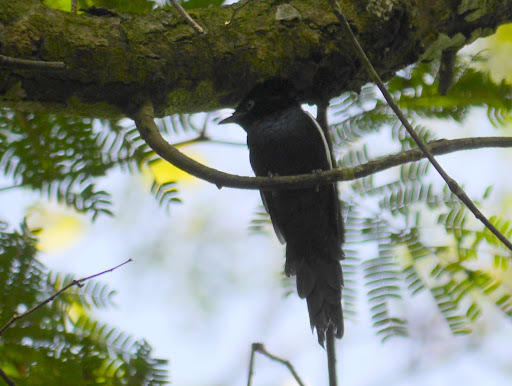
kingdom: Animalia
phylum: Chordata
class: Aves
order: Passeriformes
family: Monarchidae
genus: Terpsiphone
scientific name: Terpsiphone viridis
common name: African paradise flycatcher
